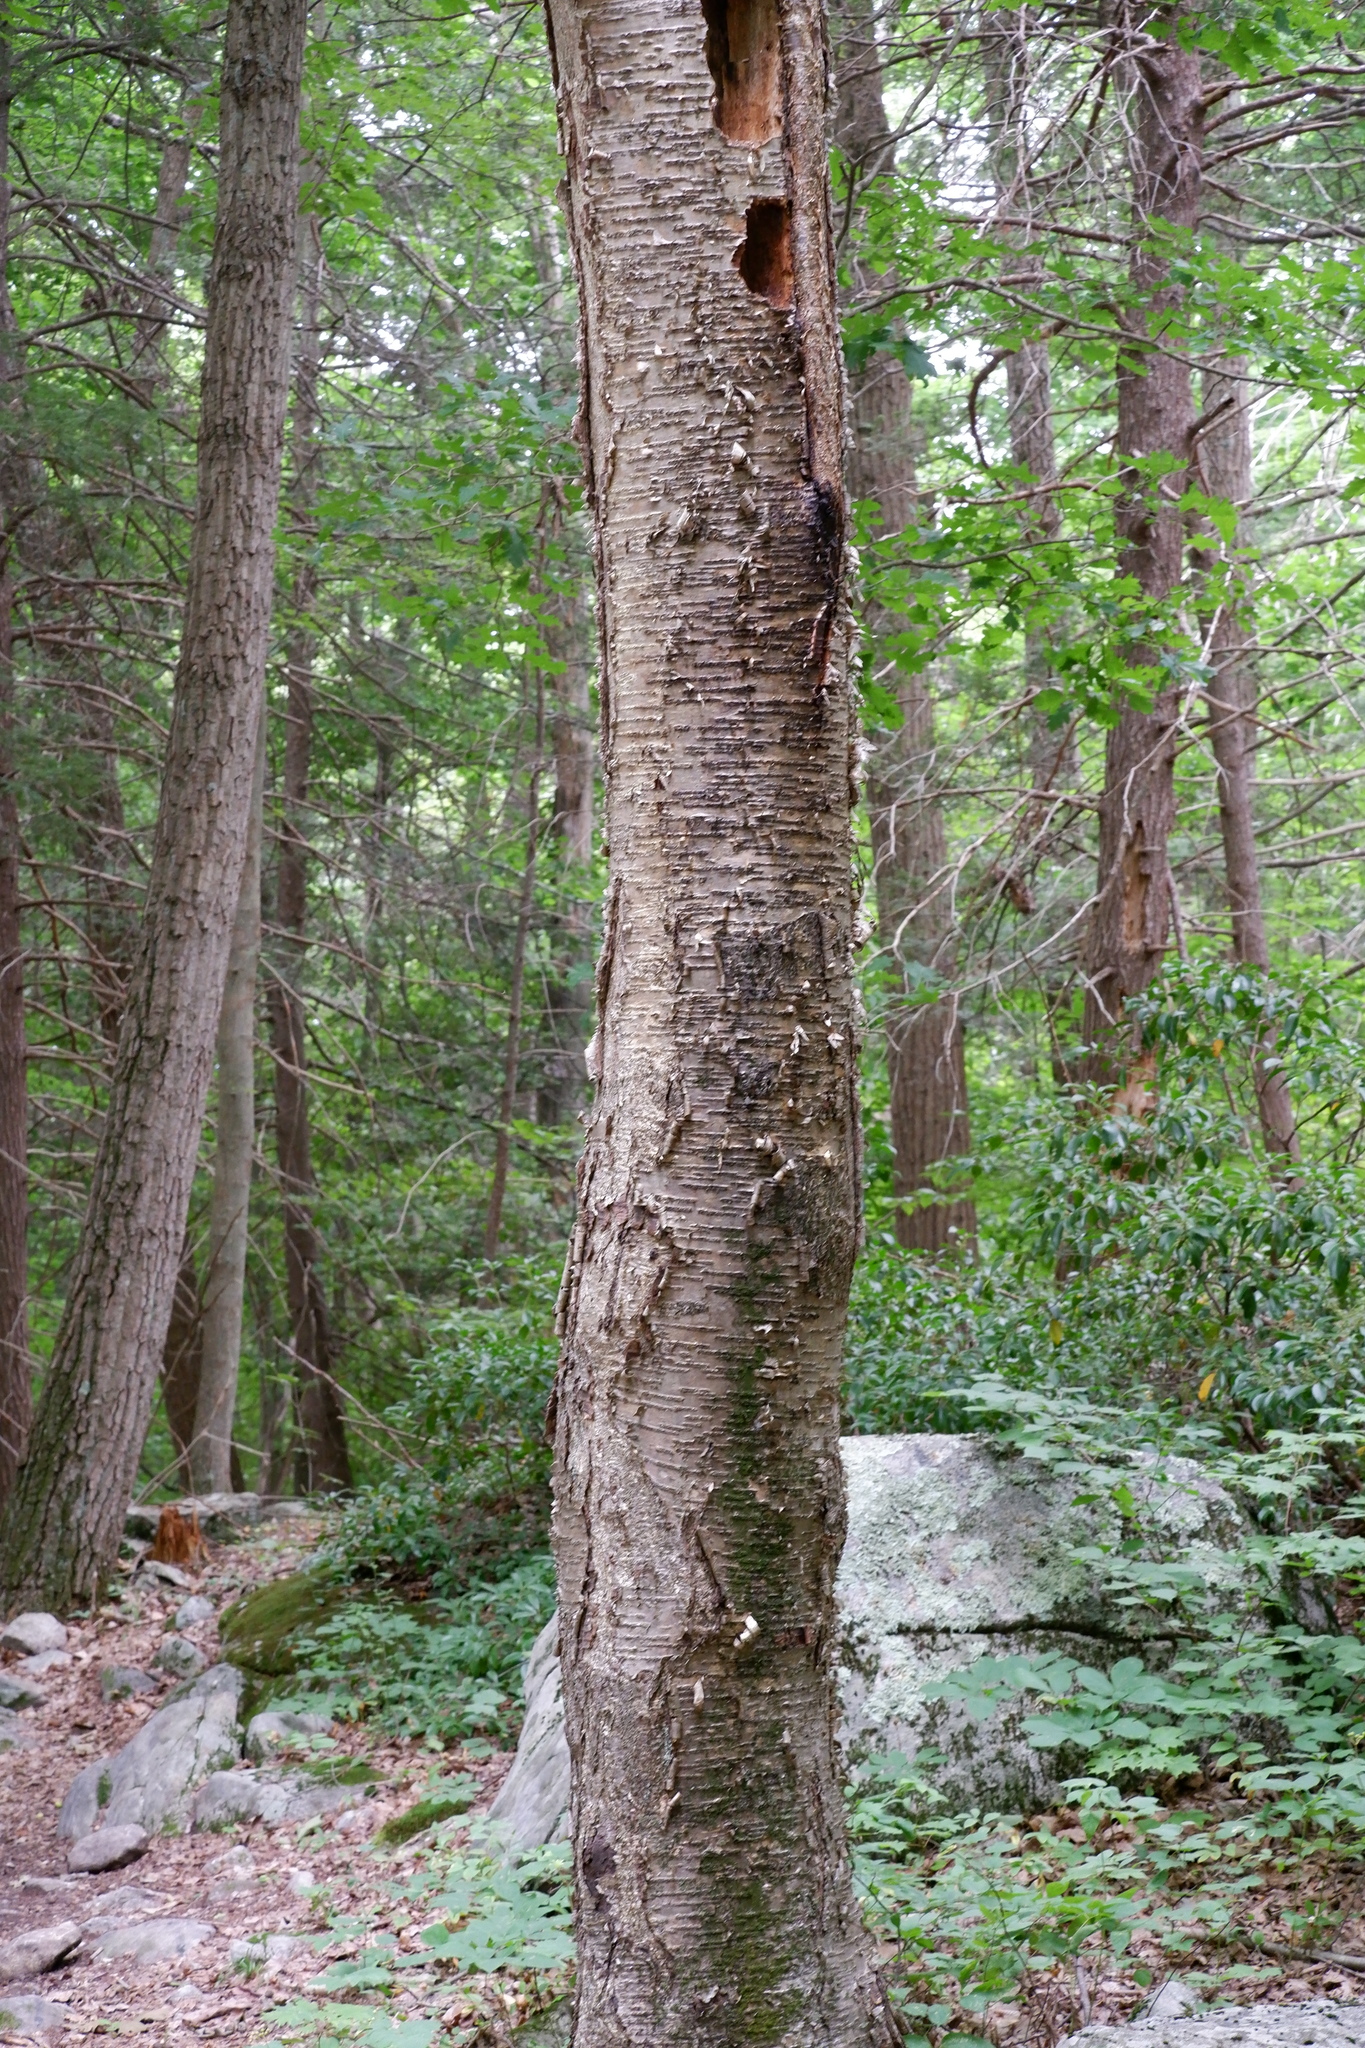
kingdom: Plantae
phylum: Tracheophyta
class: Magnoliopsida
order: Fagales
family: Betulaceae
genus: Betula
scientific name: Betula alleghaniensis
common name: Yellow birch
